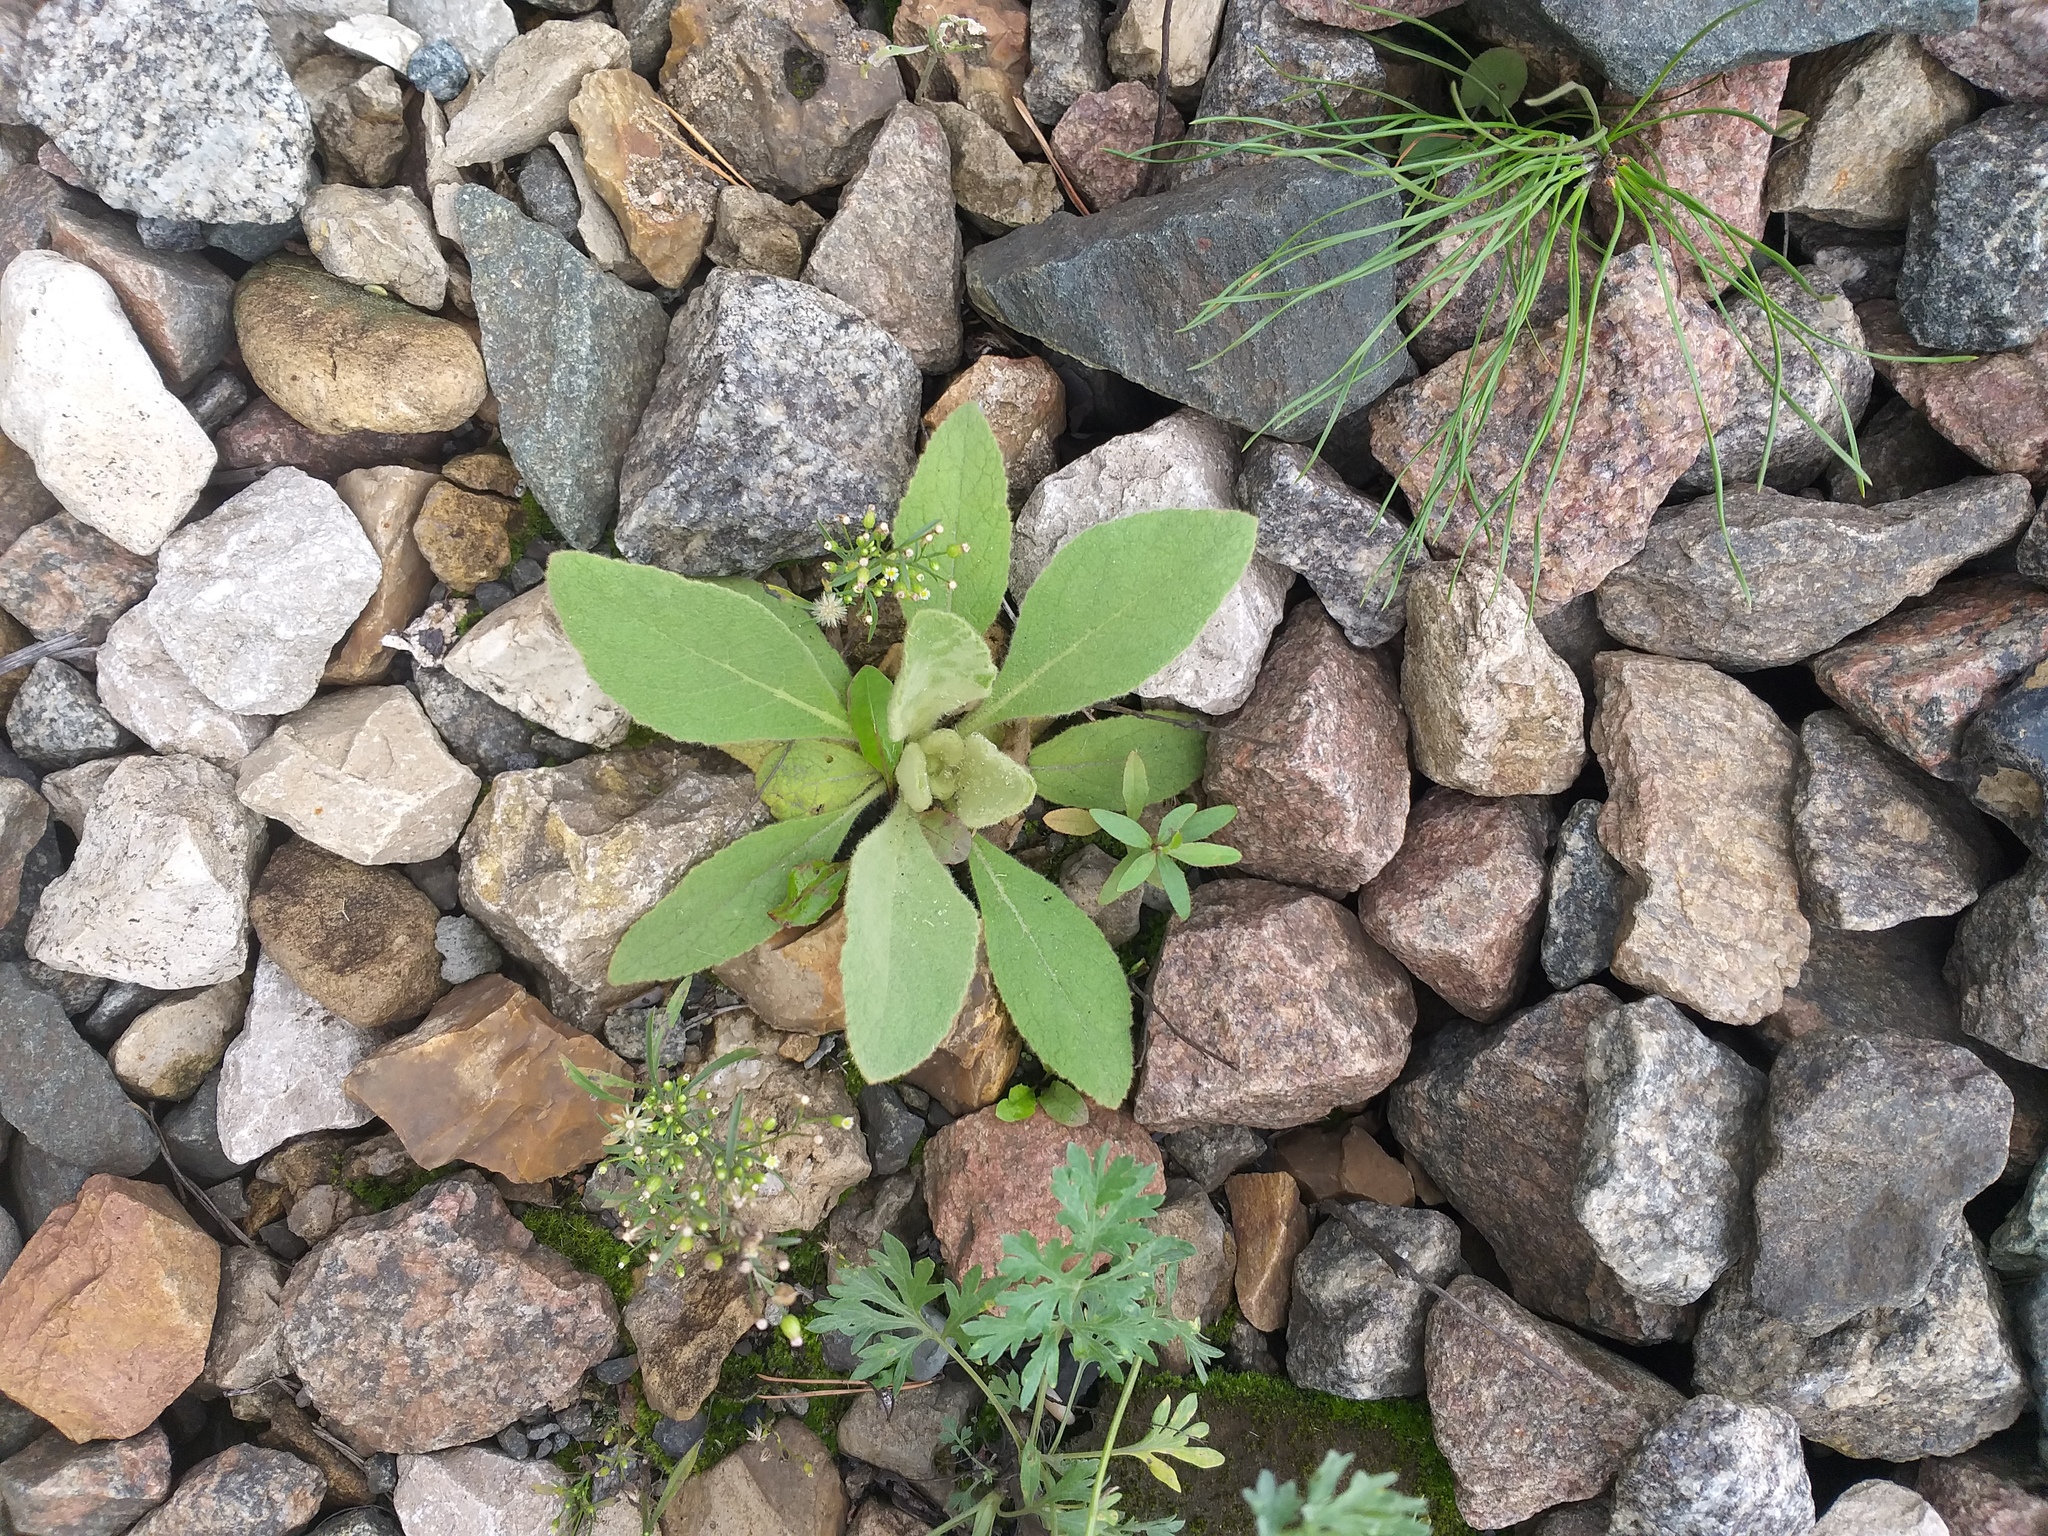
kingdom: Plantae
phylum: Tracheophyta
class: Magnoliopsida
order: Lamiales
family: Scrophulariaceae
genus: Verbascum
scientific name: Verbascum thapsus
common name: Common mullein
